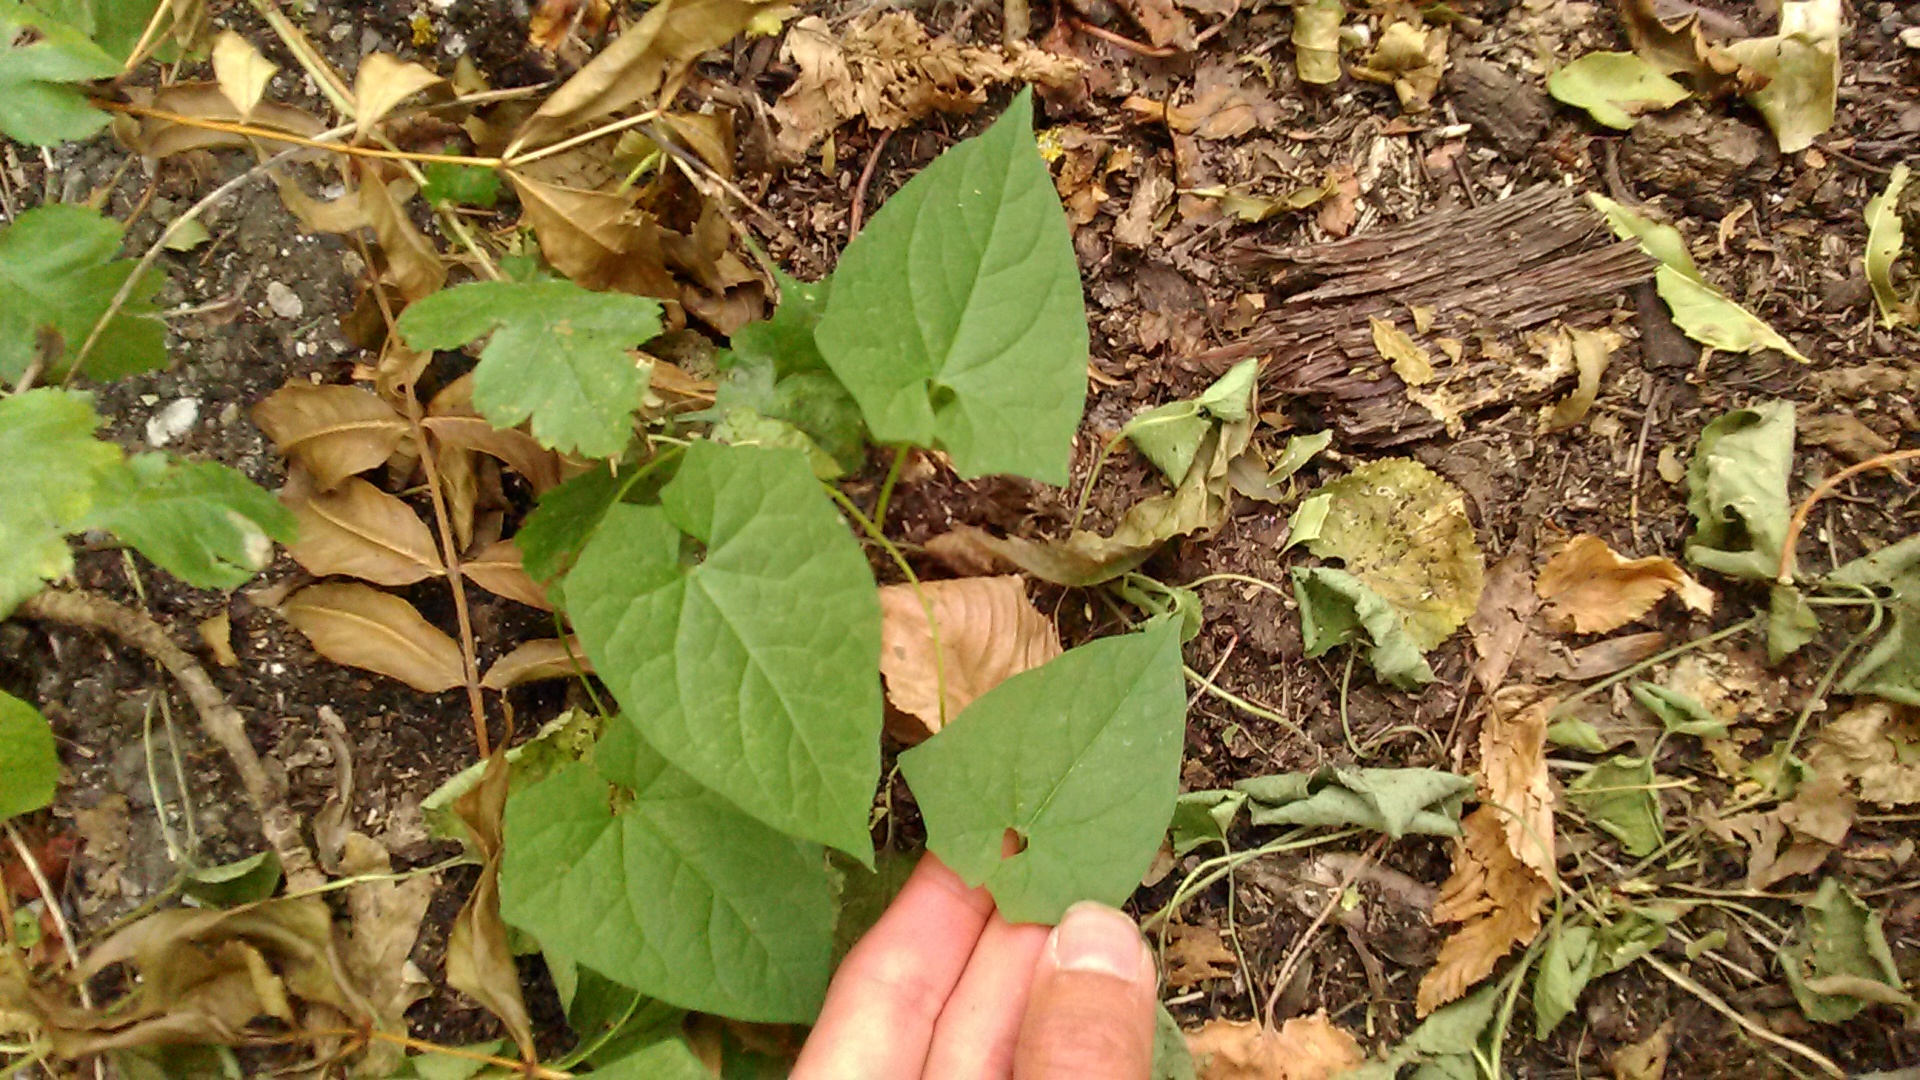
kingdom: Plantae
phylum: Tracheophyta
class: Magnoliopsida
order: Solanales
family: Convolvulaceae
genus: Calystegia
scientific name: Calystegia silvatica
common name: Large bindweed
